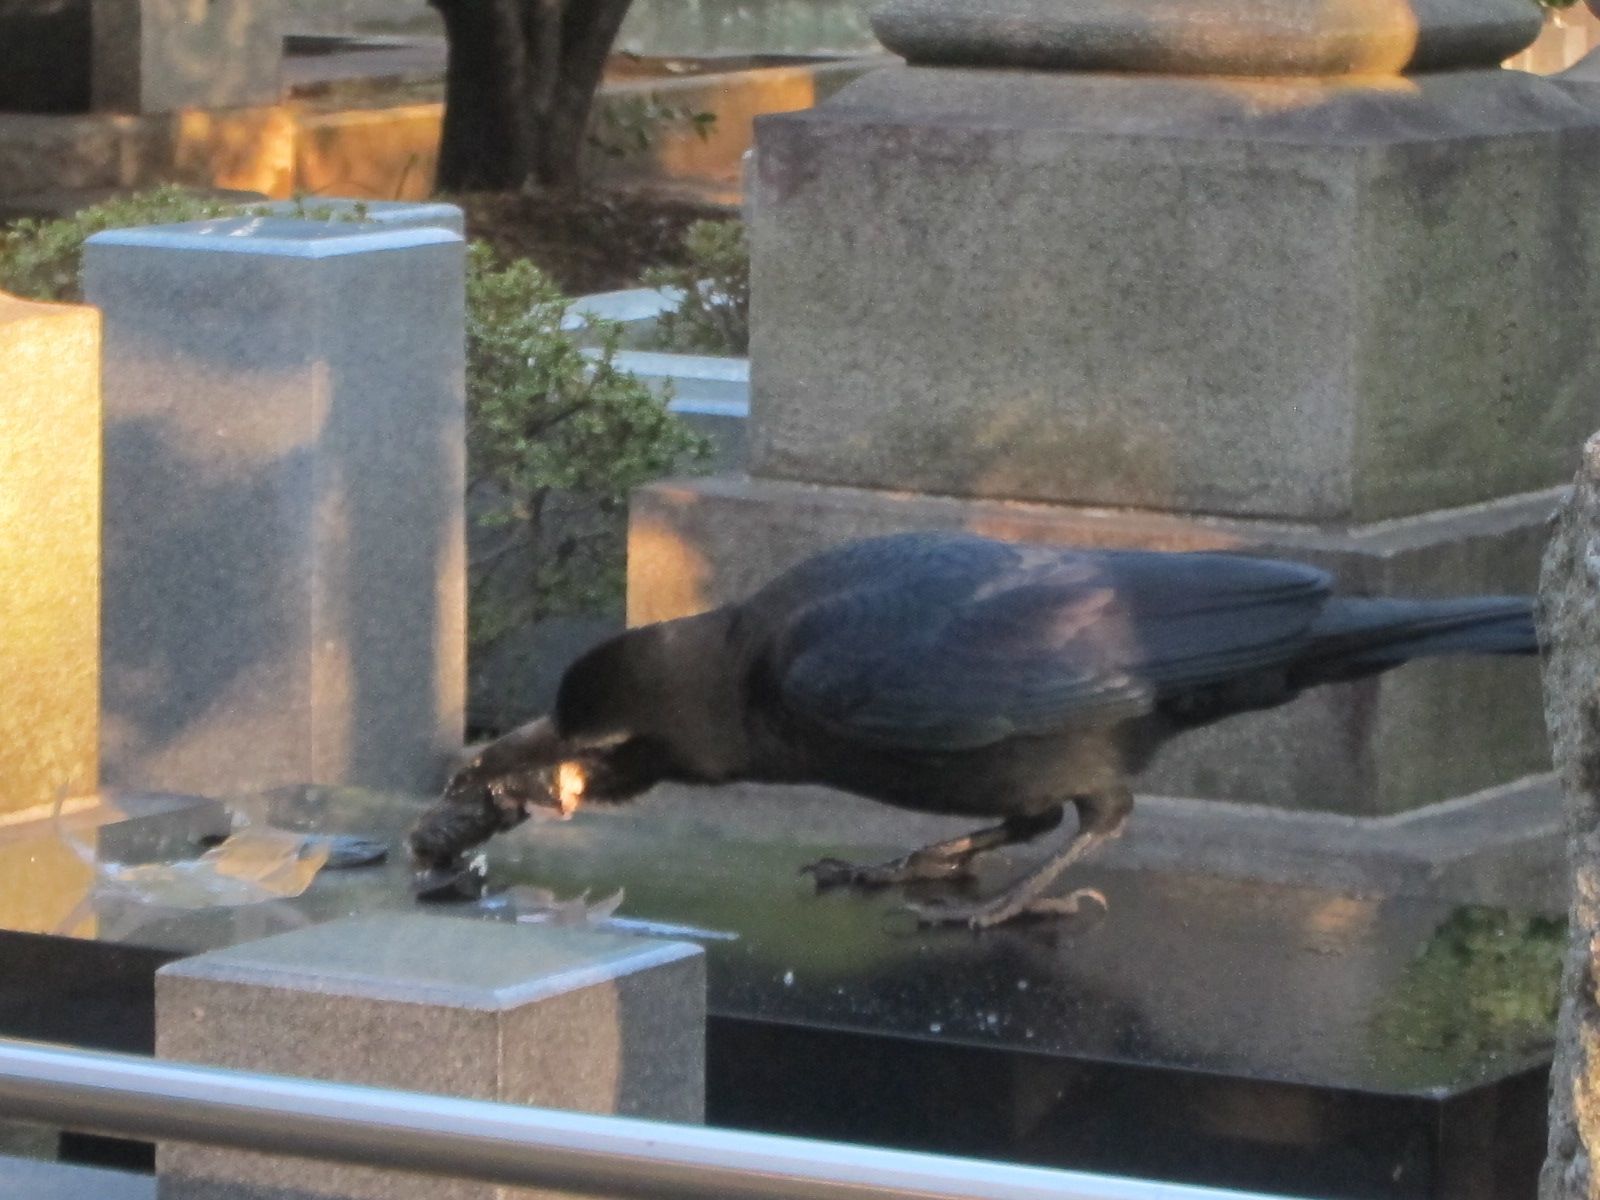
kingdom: Animalia
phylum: Chordata
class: Aves
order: Passeriformes
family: Corvidae
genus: Corvus
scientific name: Corvus macrorhynchos
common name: Large-billed crow
